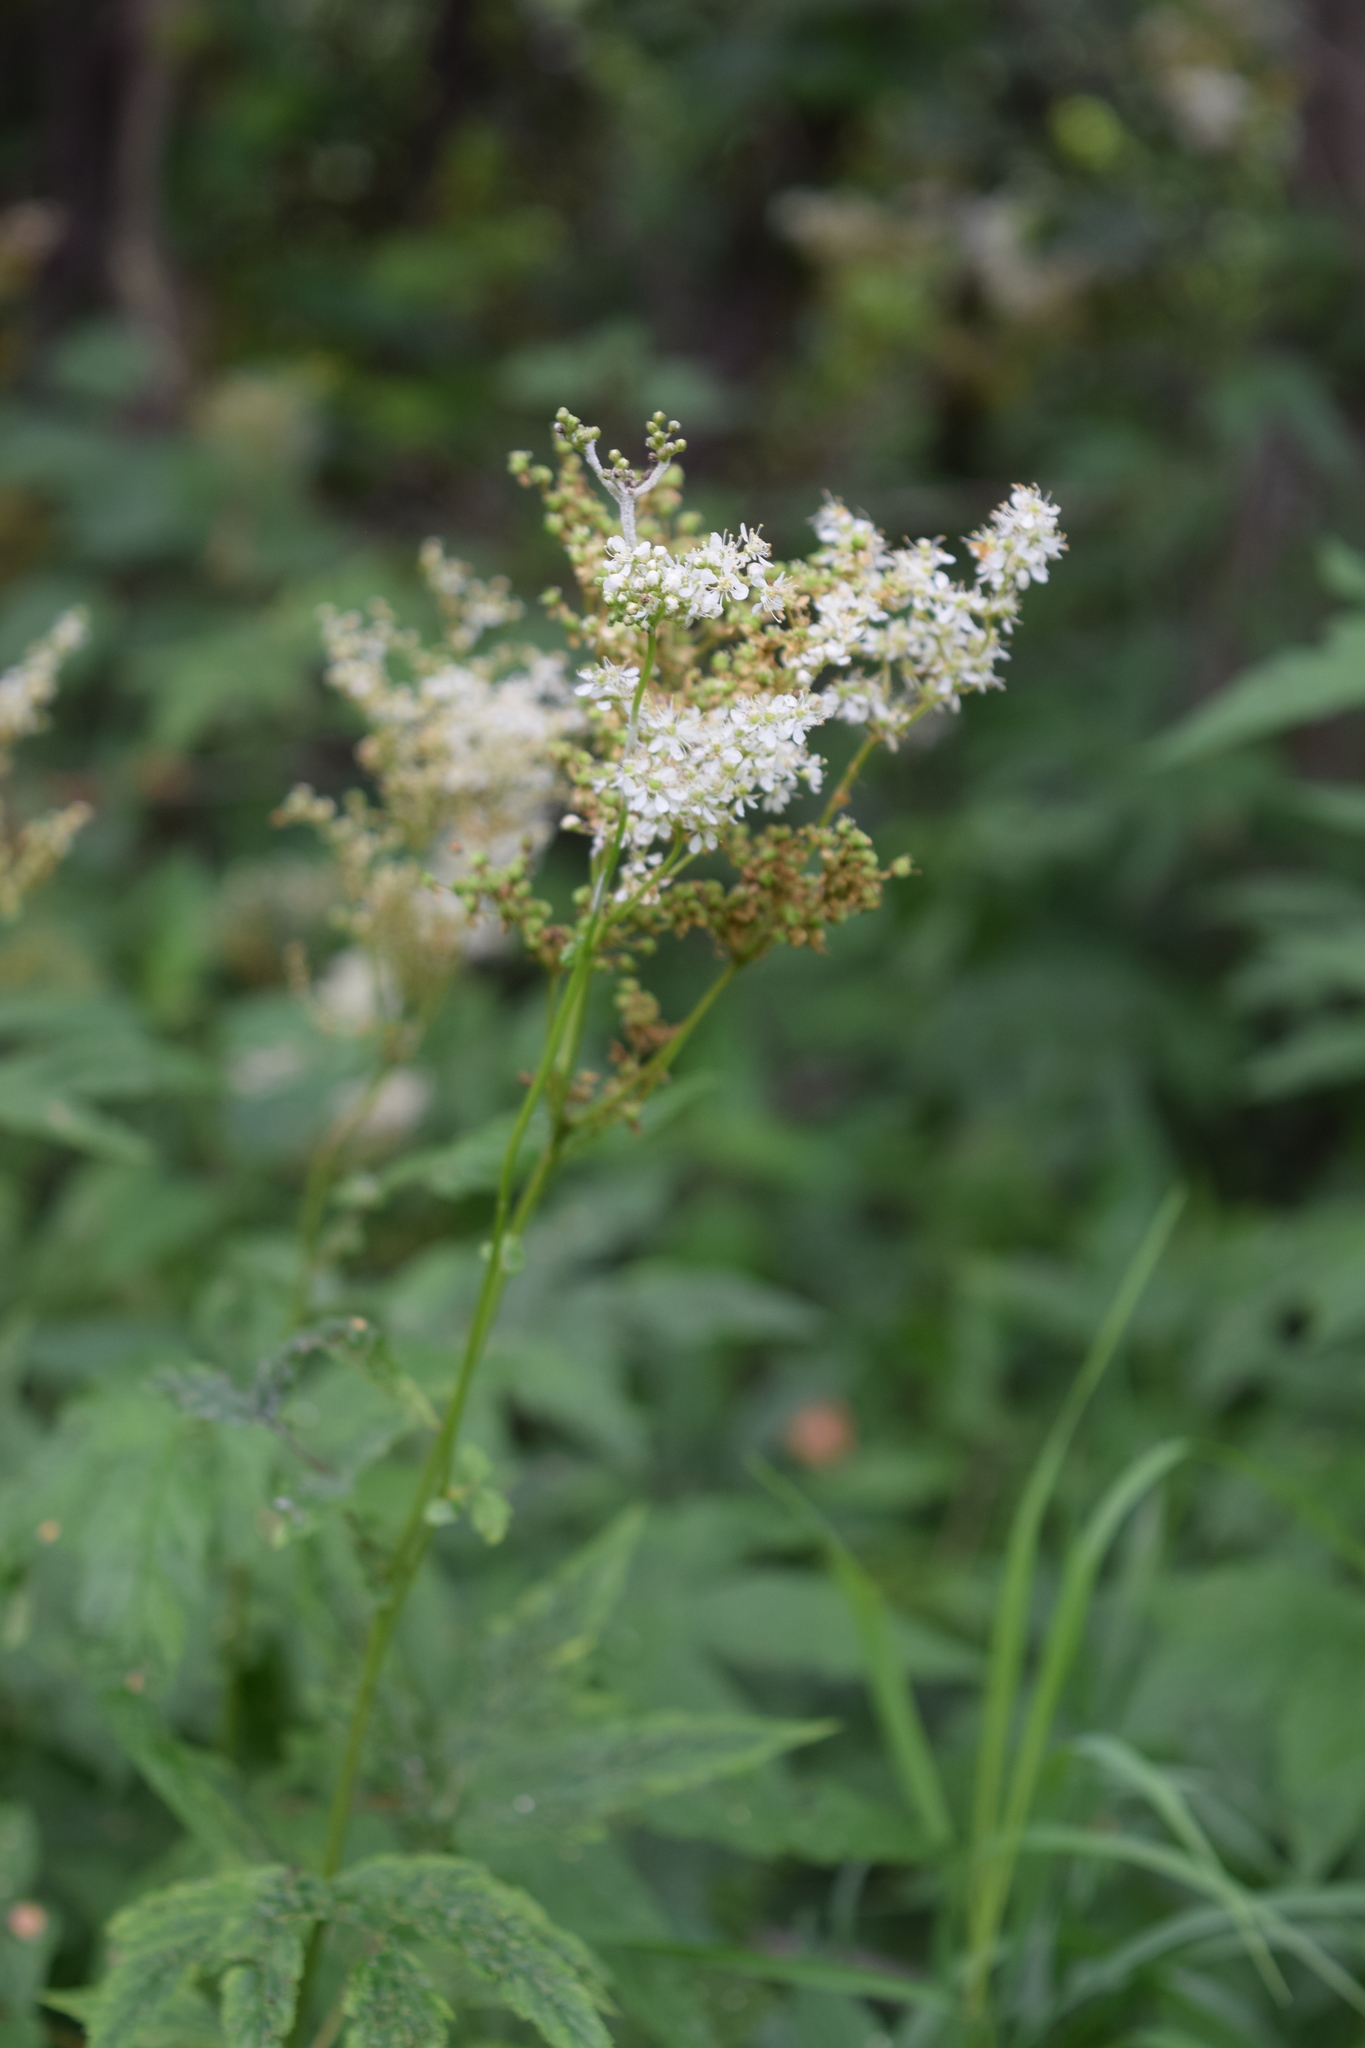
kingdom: Plantae
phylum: Tracheophyta
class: Magnoliopsida
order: Rosales
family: Rosaceae
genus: Filipendula
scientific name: Filipendula ulmaria
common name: Meadowsweet
